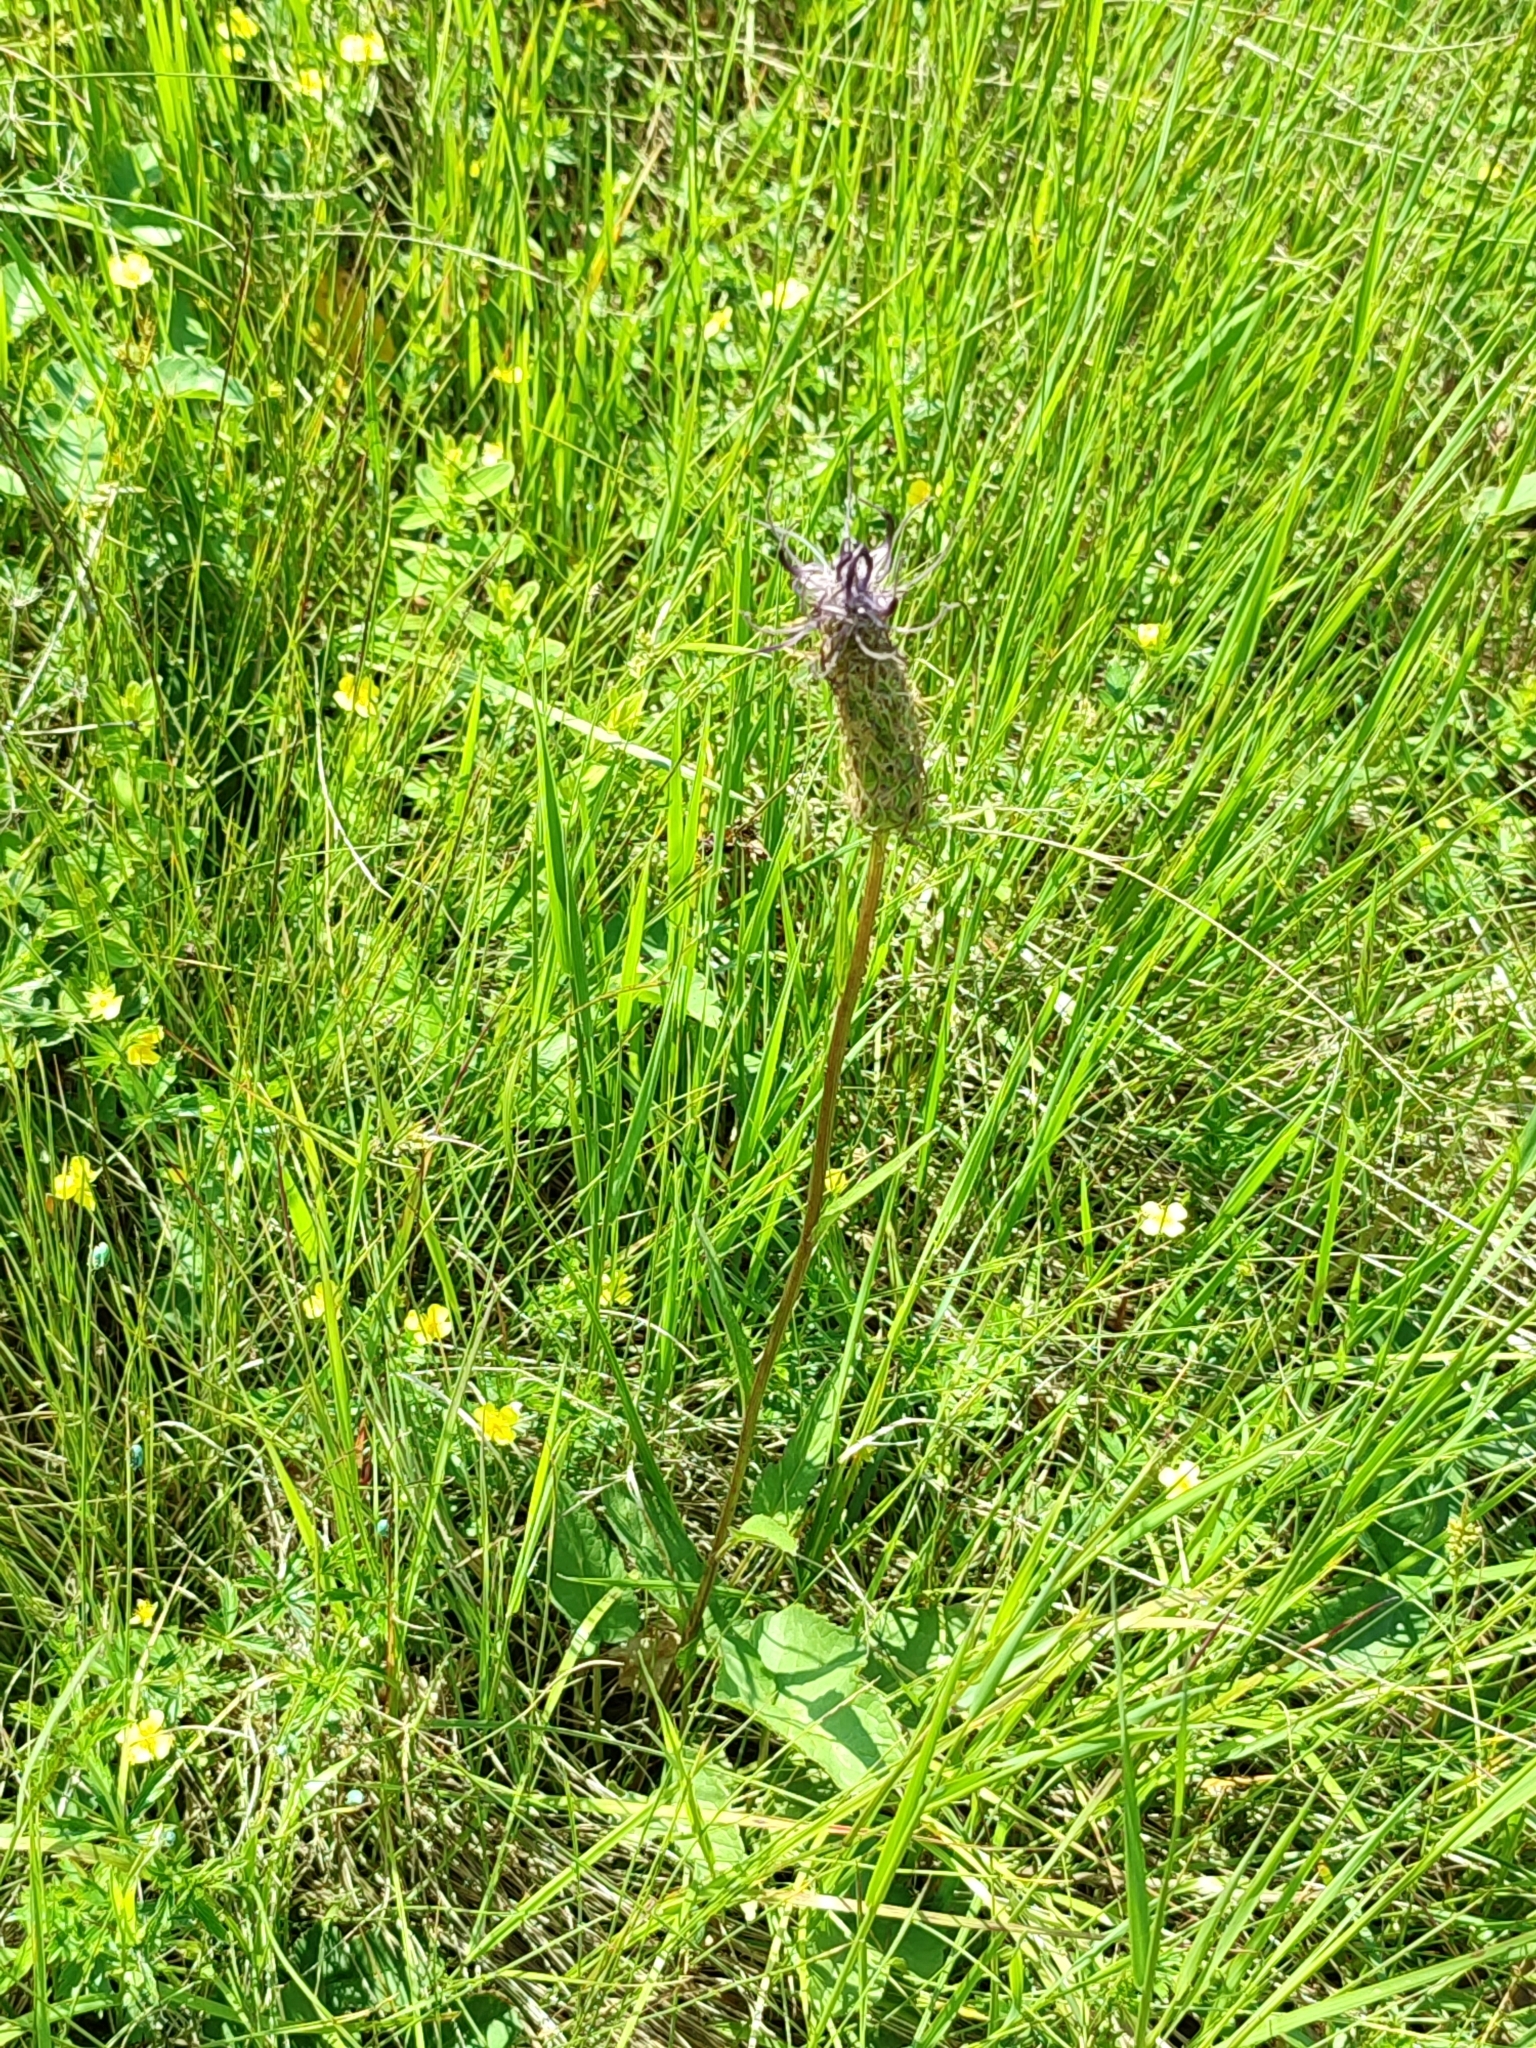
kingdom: Plantae
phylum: Tracheophyta
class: Magnoliopsida
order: Asterales
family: Campanulaceae
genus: Phyteuma
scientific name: Phyteuma vagneri
